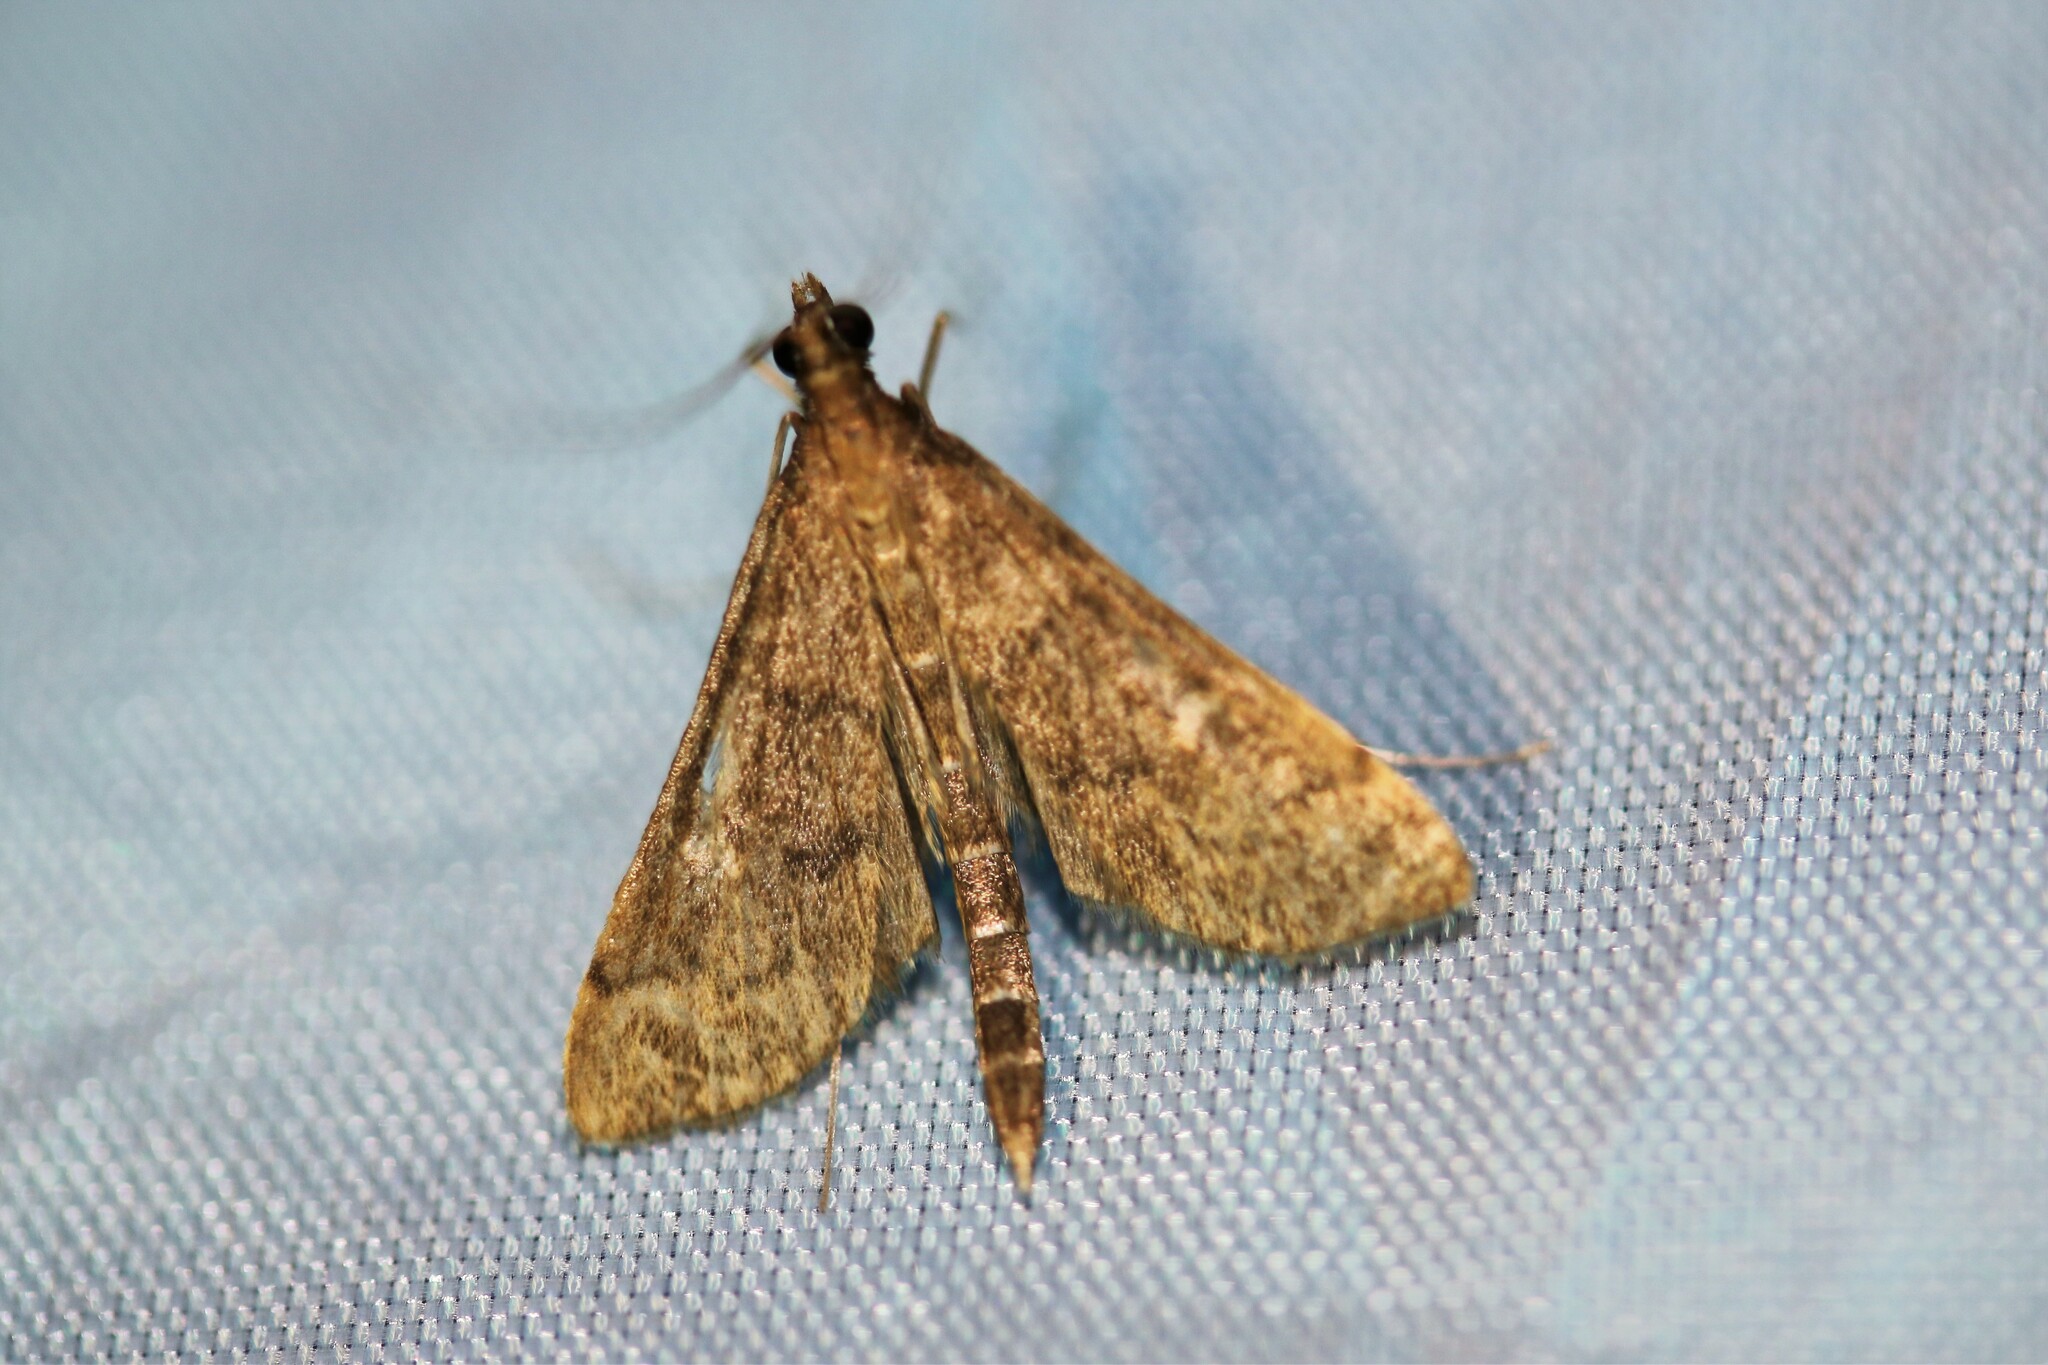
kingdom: Animalia
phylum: Arthropoda
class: Insecta
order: Lepidoptera
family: Crambidae
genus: Stenia
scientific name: Stenia Dolicharthria punctalis
